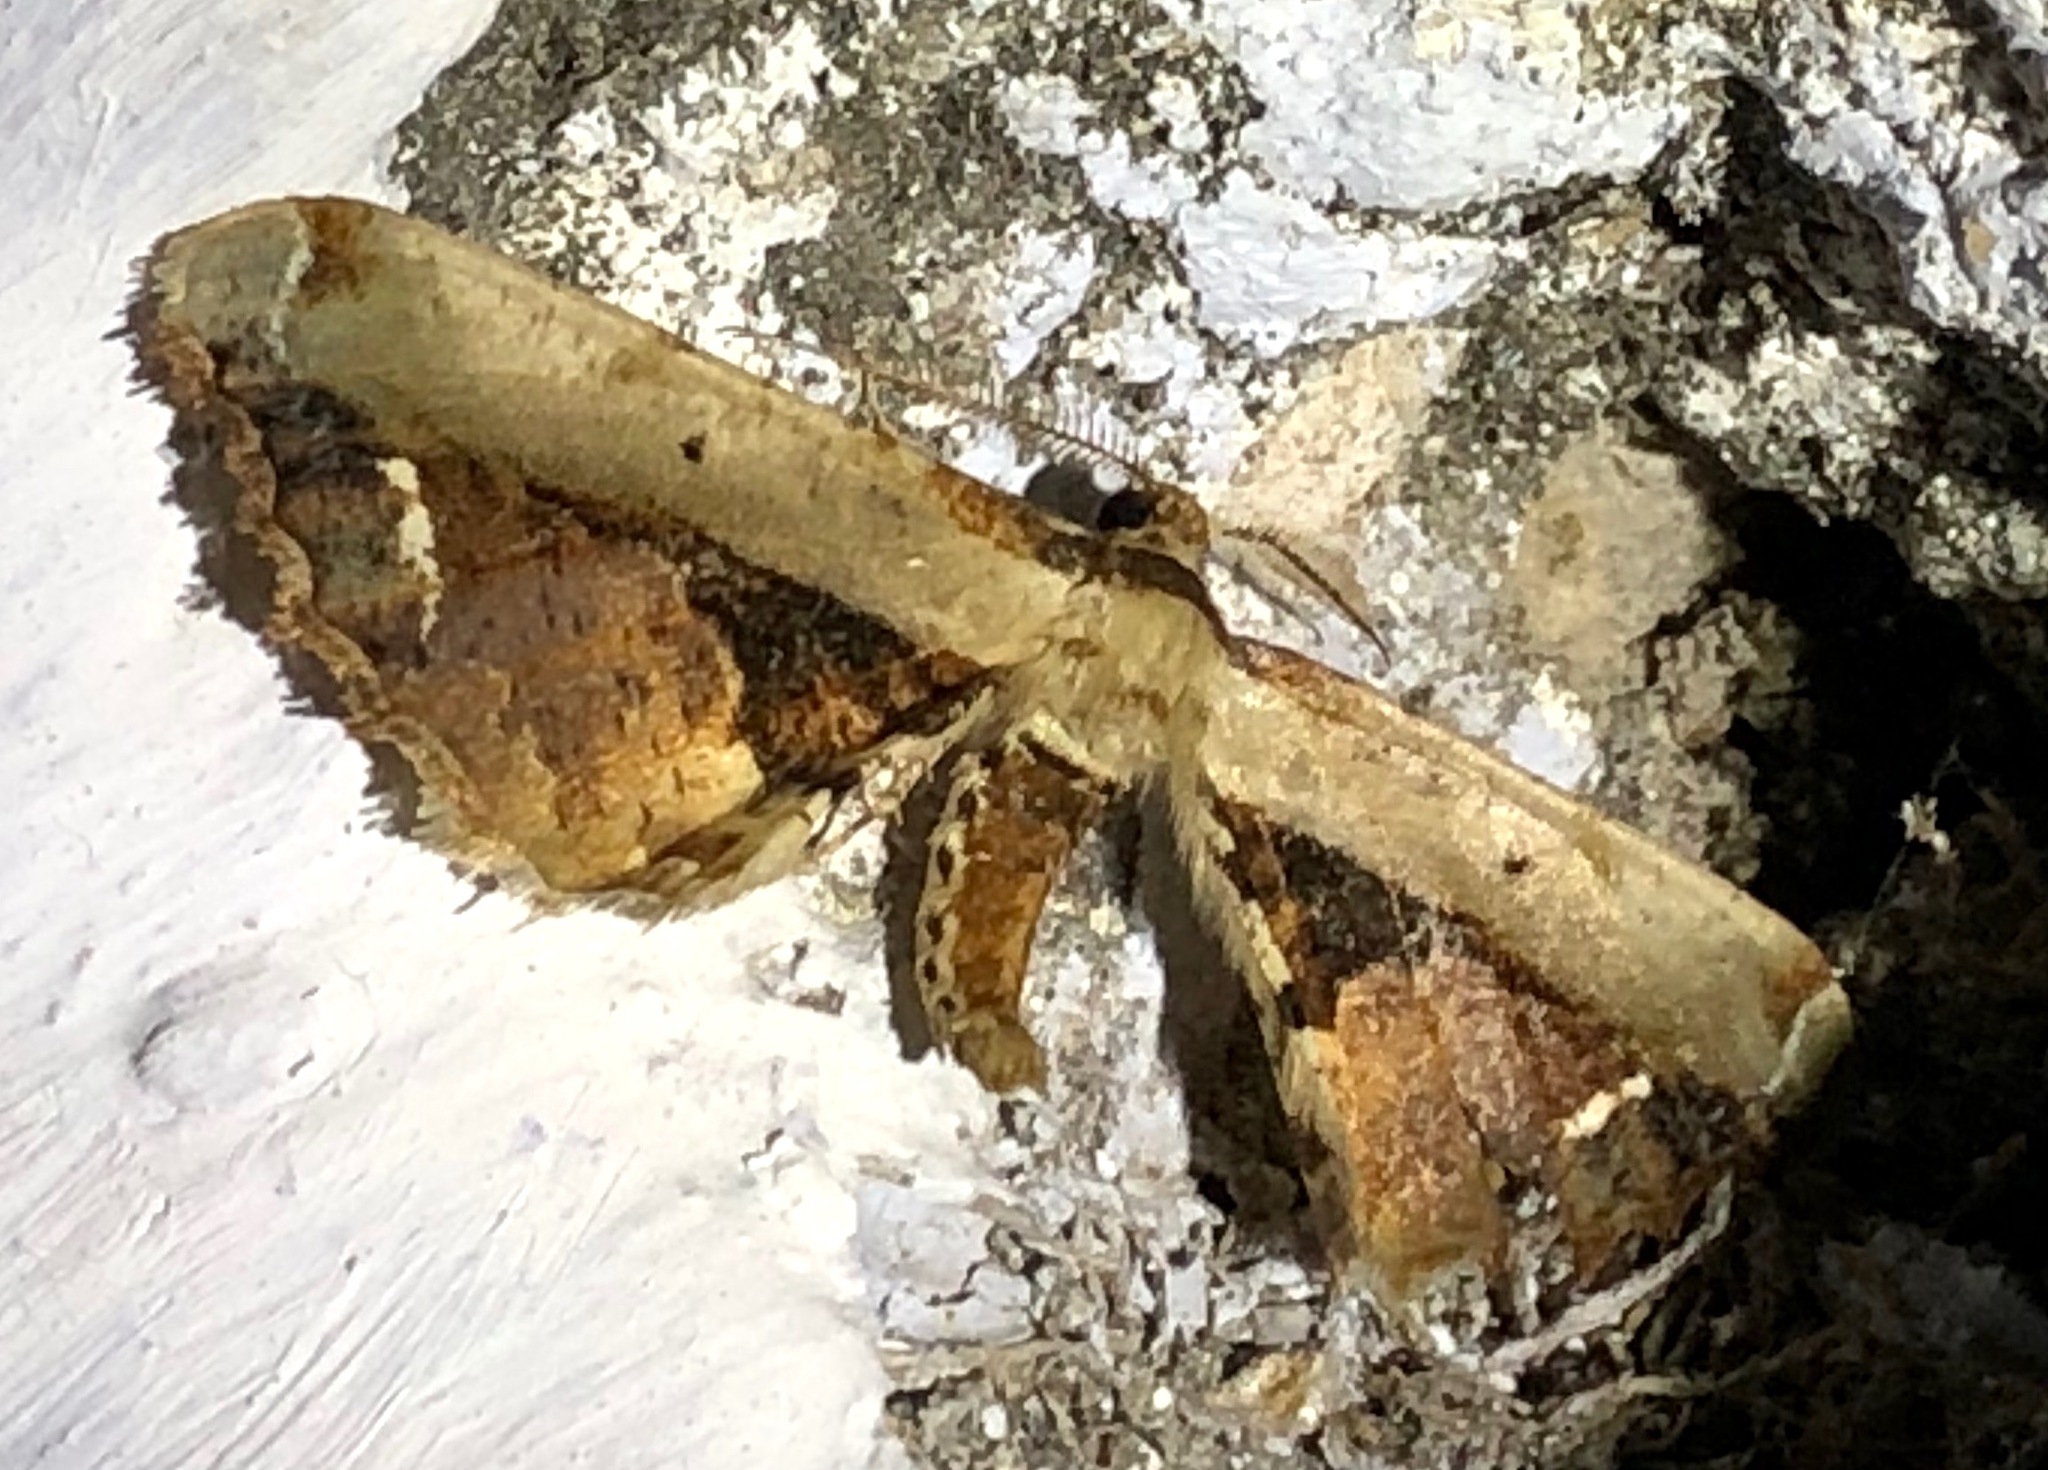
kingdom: Animalia
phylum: Arthropoda
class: Insecta
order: Lepidoptera
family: Geometridae
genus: Apophyga
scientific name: Apophyga sericea
